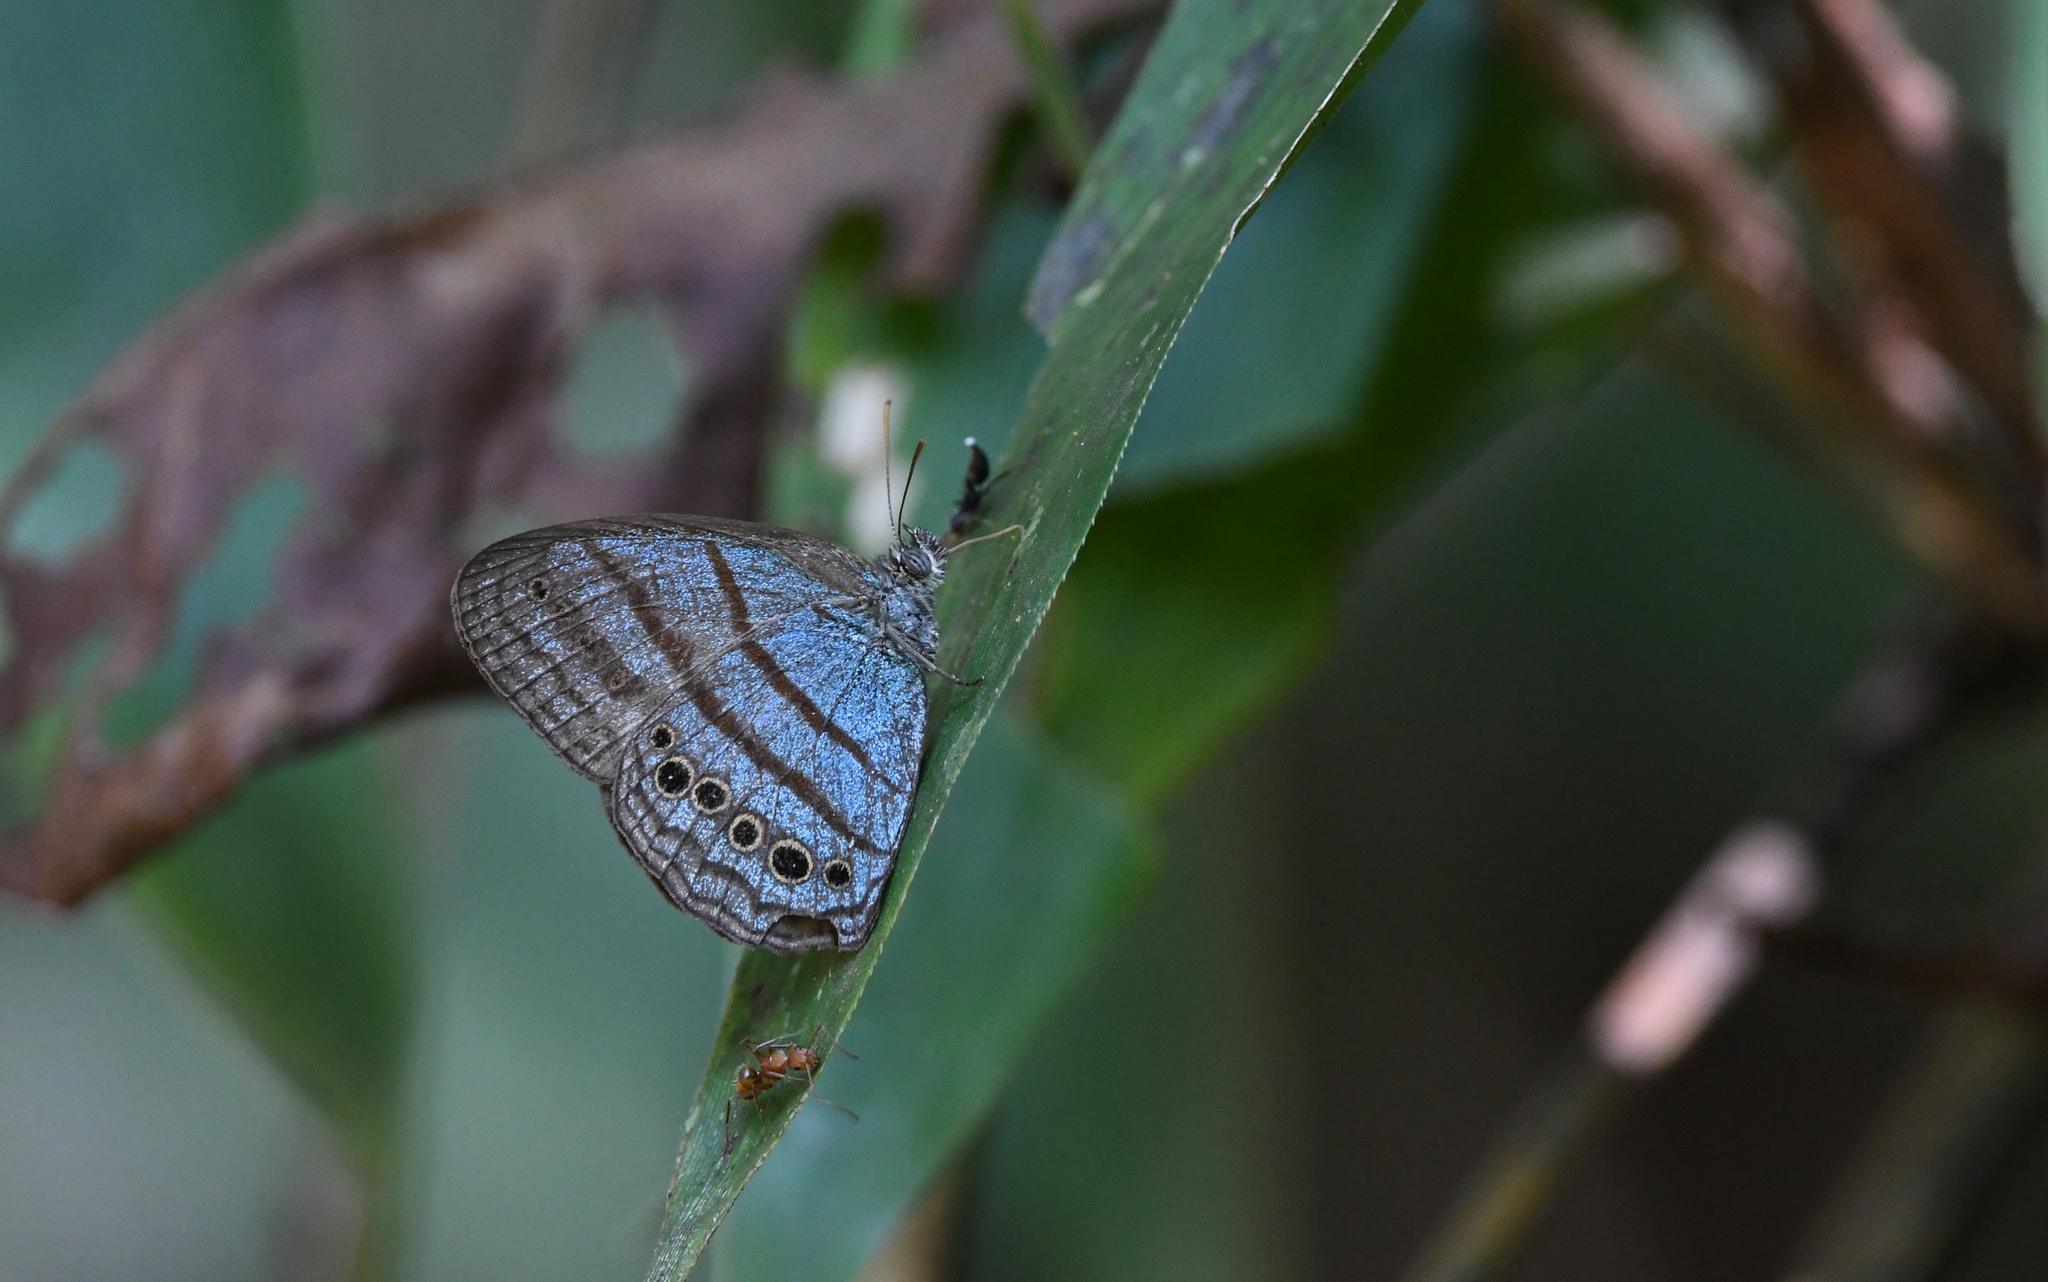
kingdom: Animalia
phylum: Arthropoda
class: Insecta
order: Lepidoptera
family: Nymphalidae
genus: Caeruleuptychia
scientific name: Caeruleuptychia twalela
